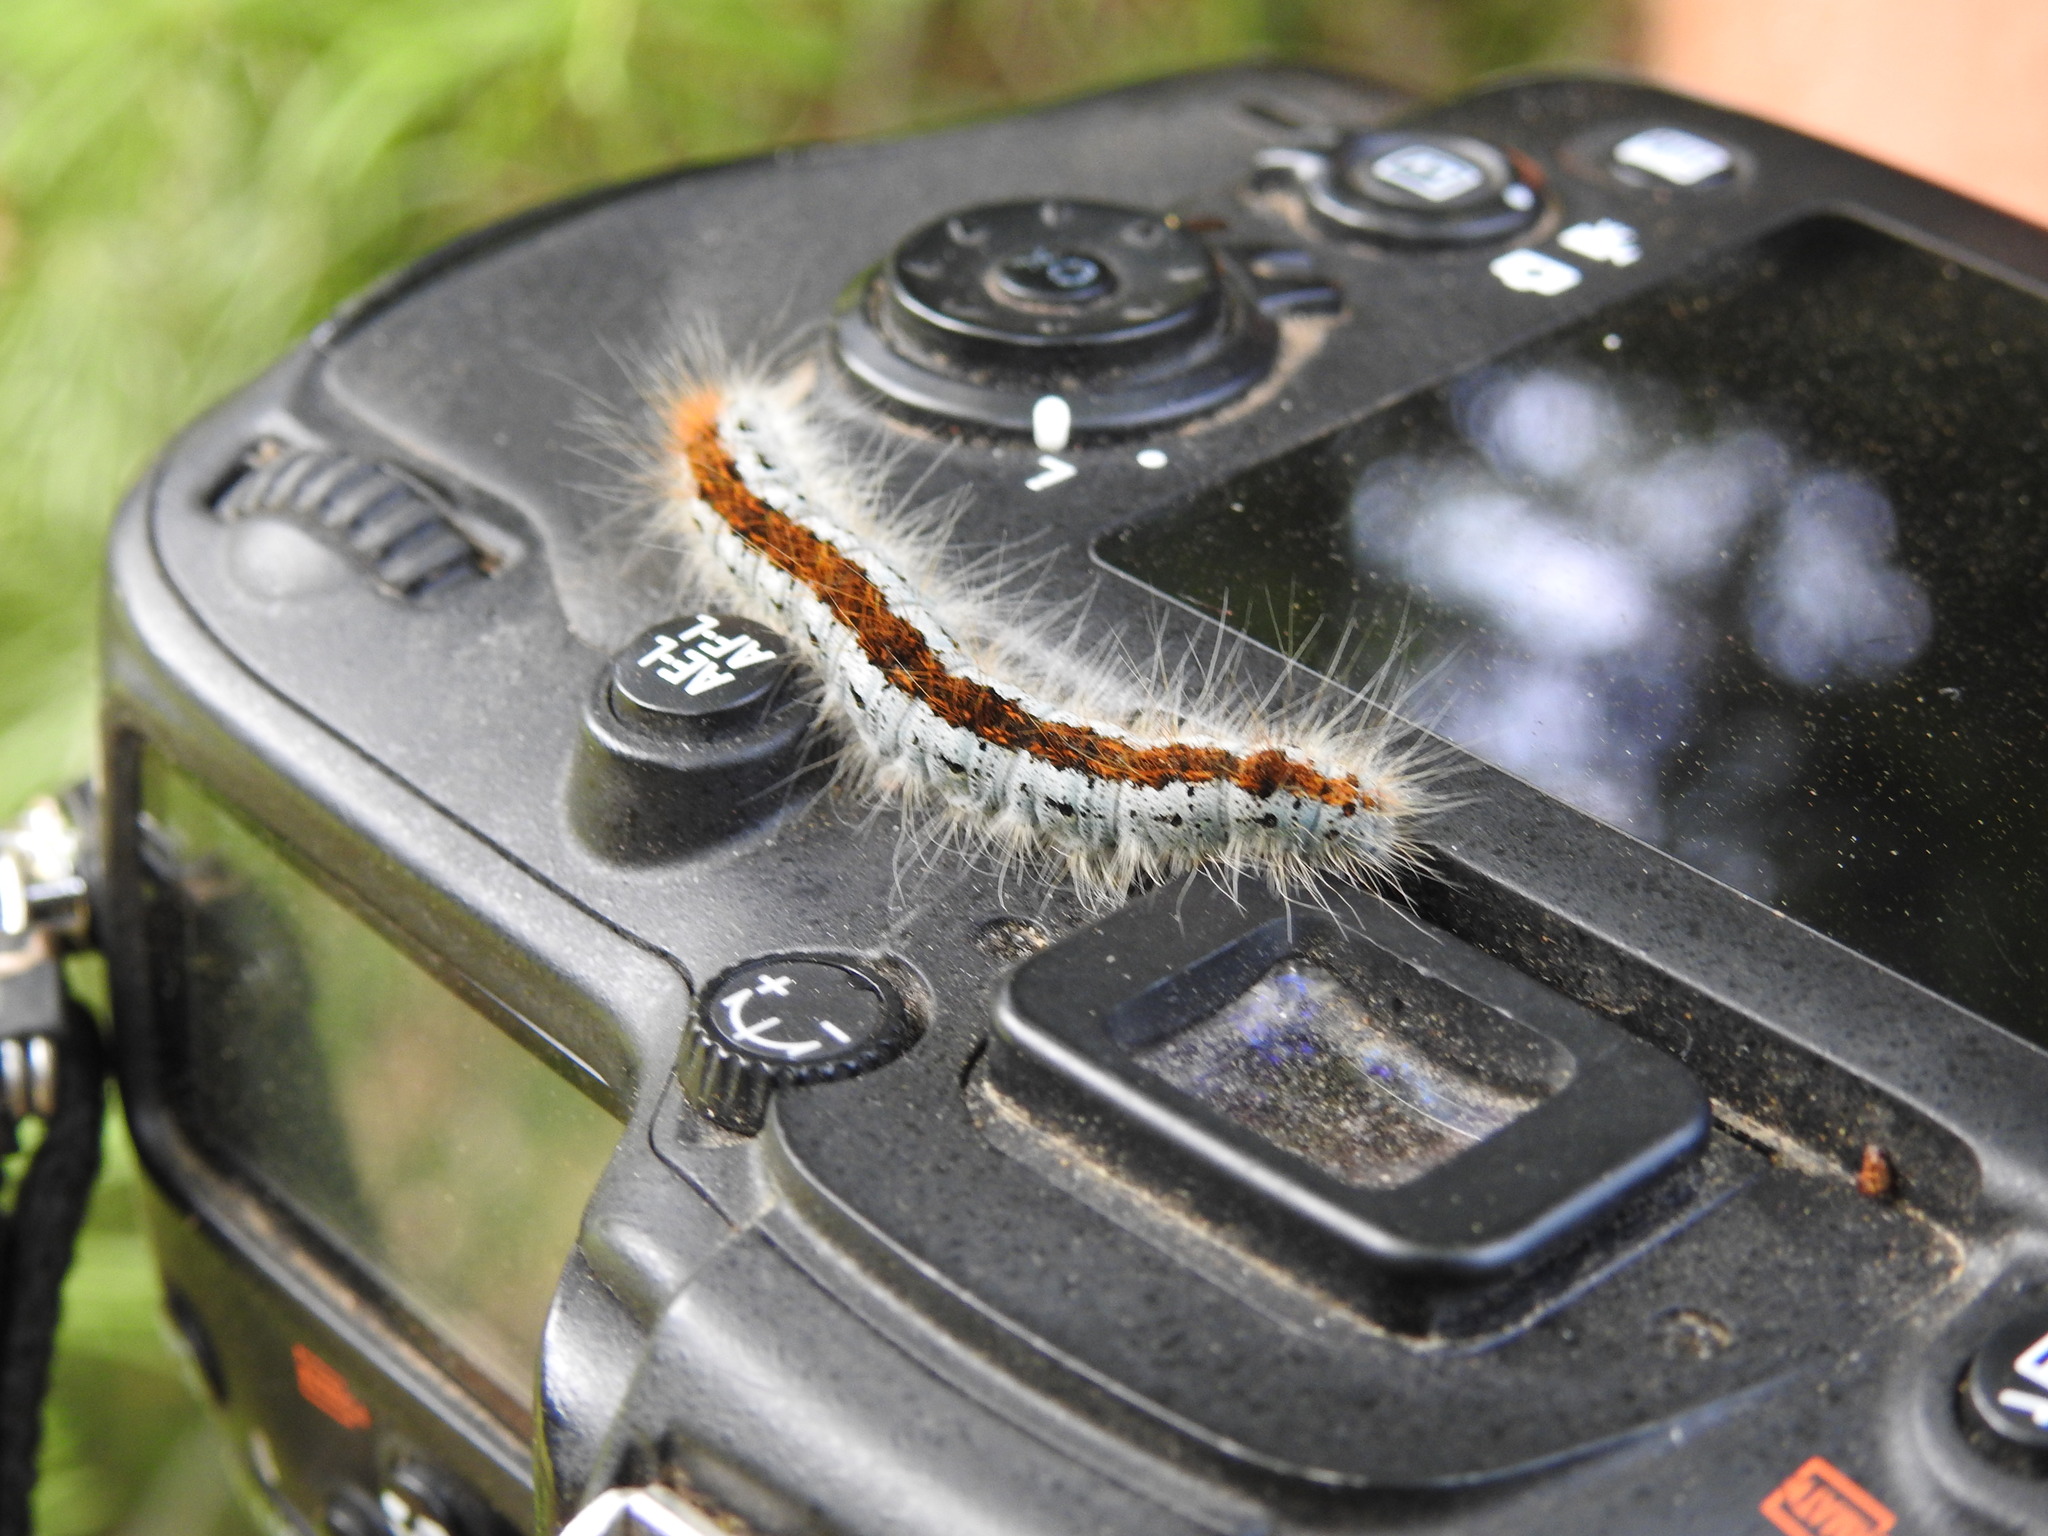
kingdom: Animalia
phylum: Arthropoda
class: Insecta
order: Lepidoptera
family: Lasiocampidae
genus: Malacosoma
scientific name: Malacosoma incurva
